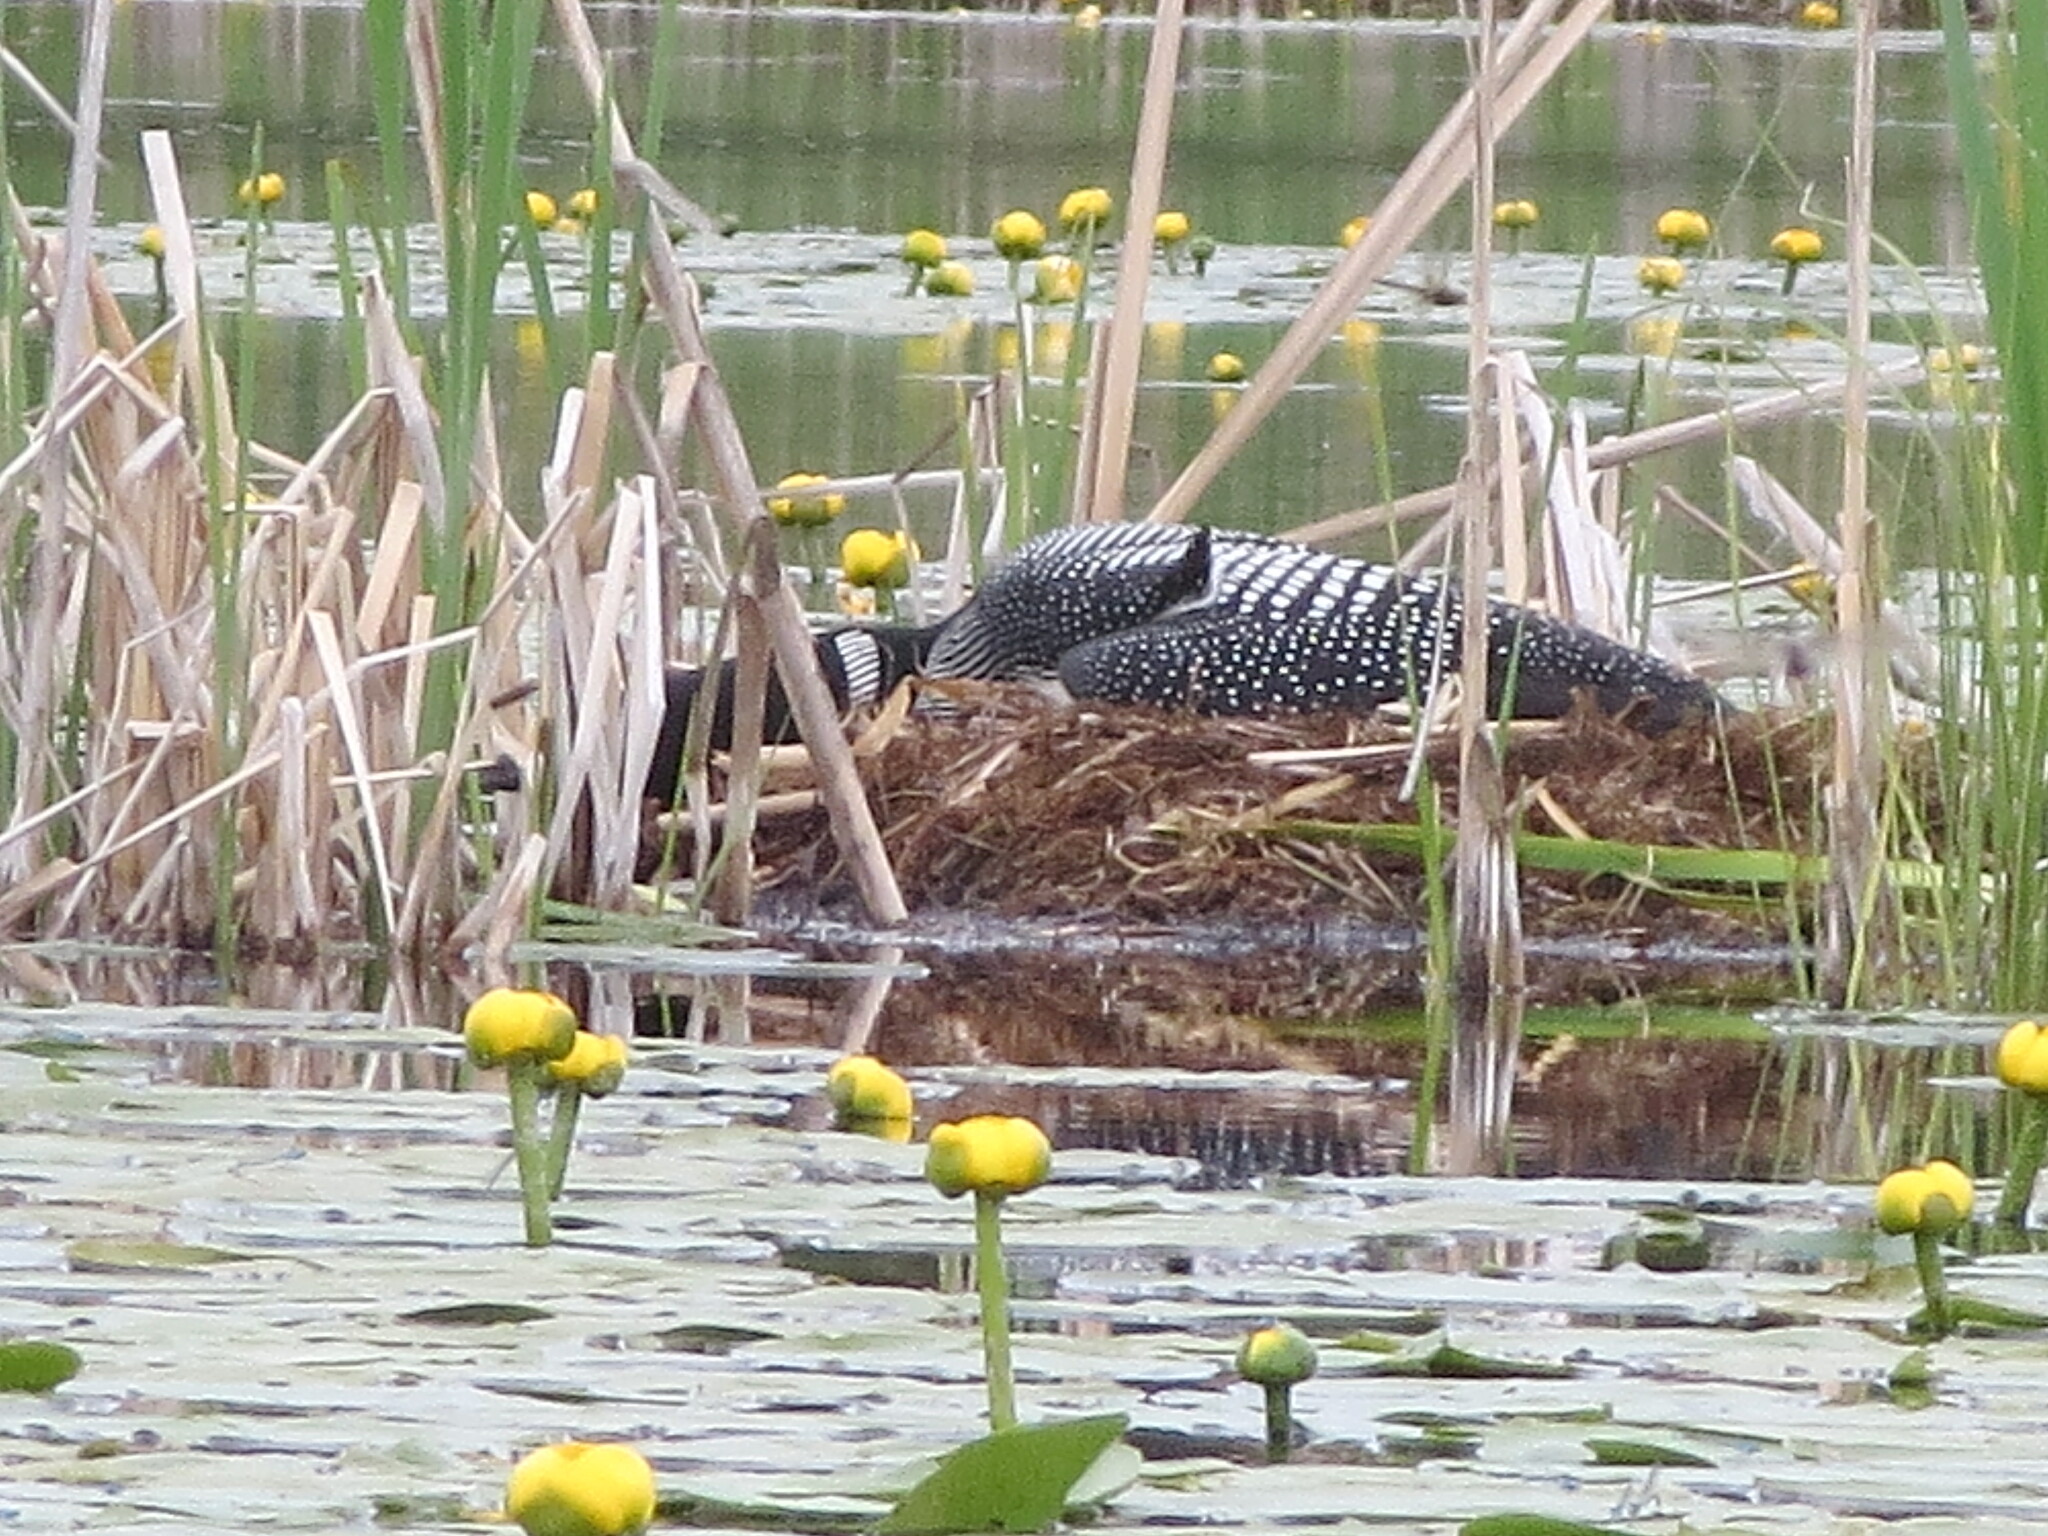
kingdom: Animalia
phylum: Chordata
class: Aves
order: Gaviiformes
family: Gaviidae
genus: Gavia
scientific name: Gavia immer
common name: Common loon
